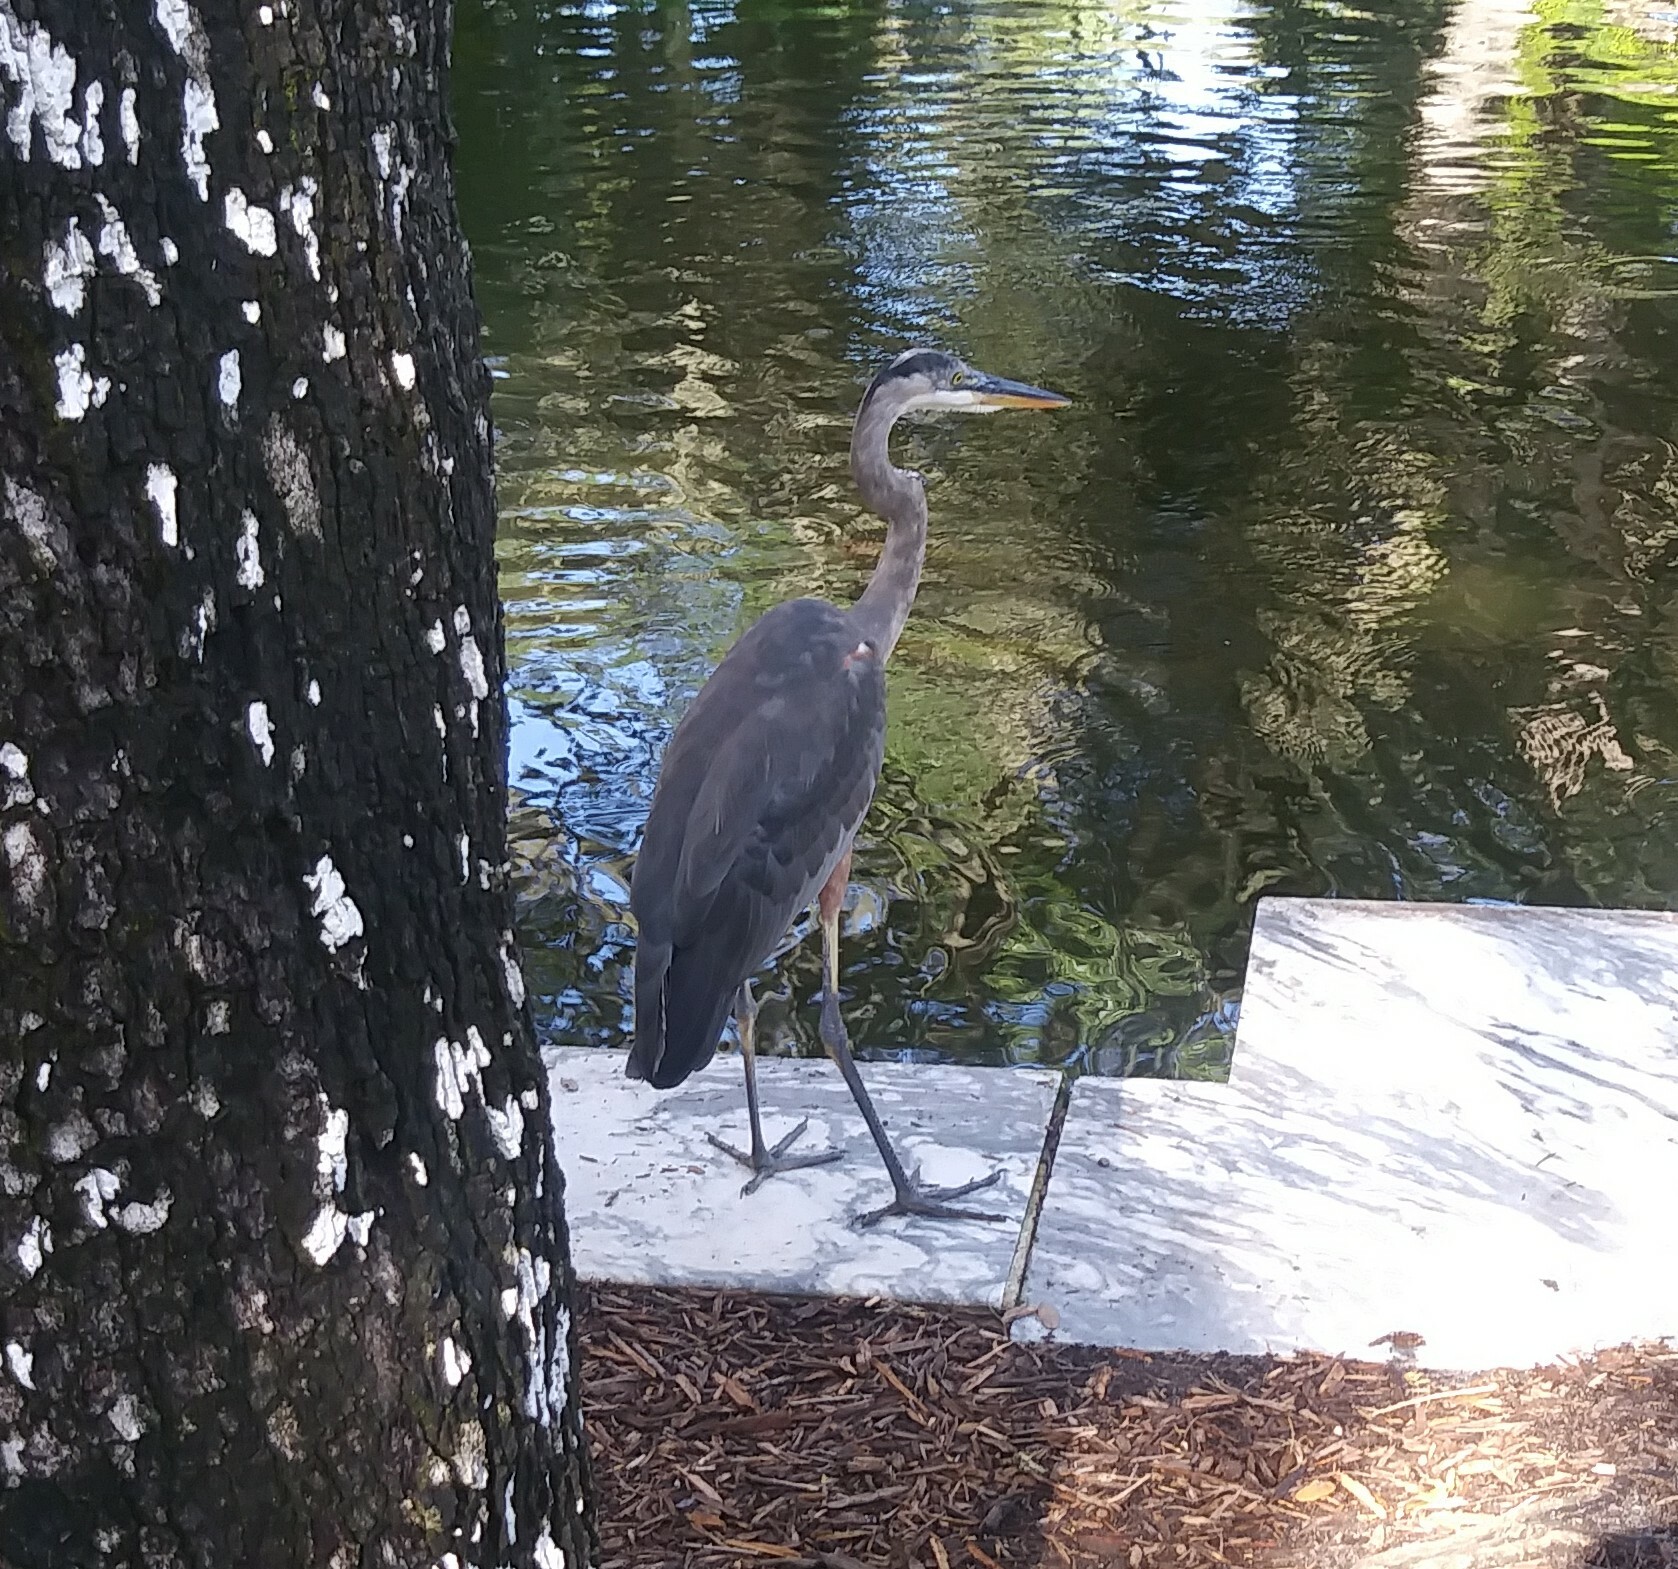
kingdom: Animalia
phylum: Chordata
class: Aves
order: Pelecaniformes
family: Ardeidae
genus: Ardea
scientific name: Ardea herodias
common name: Great blue heron
